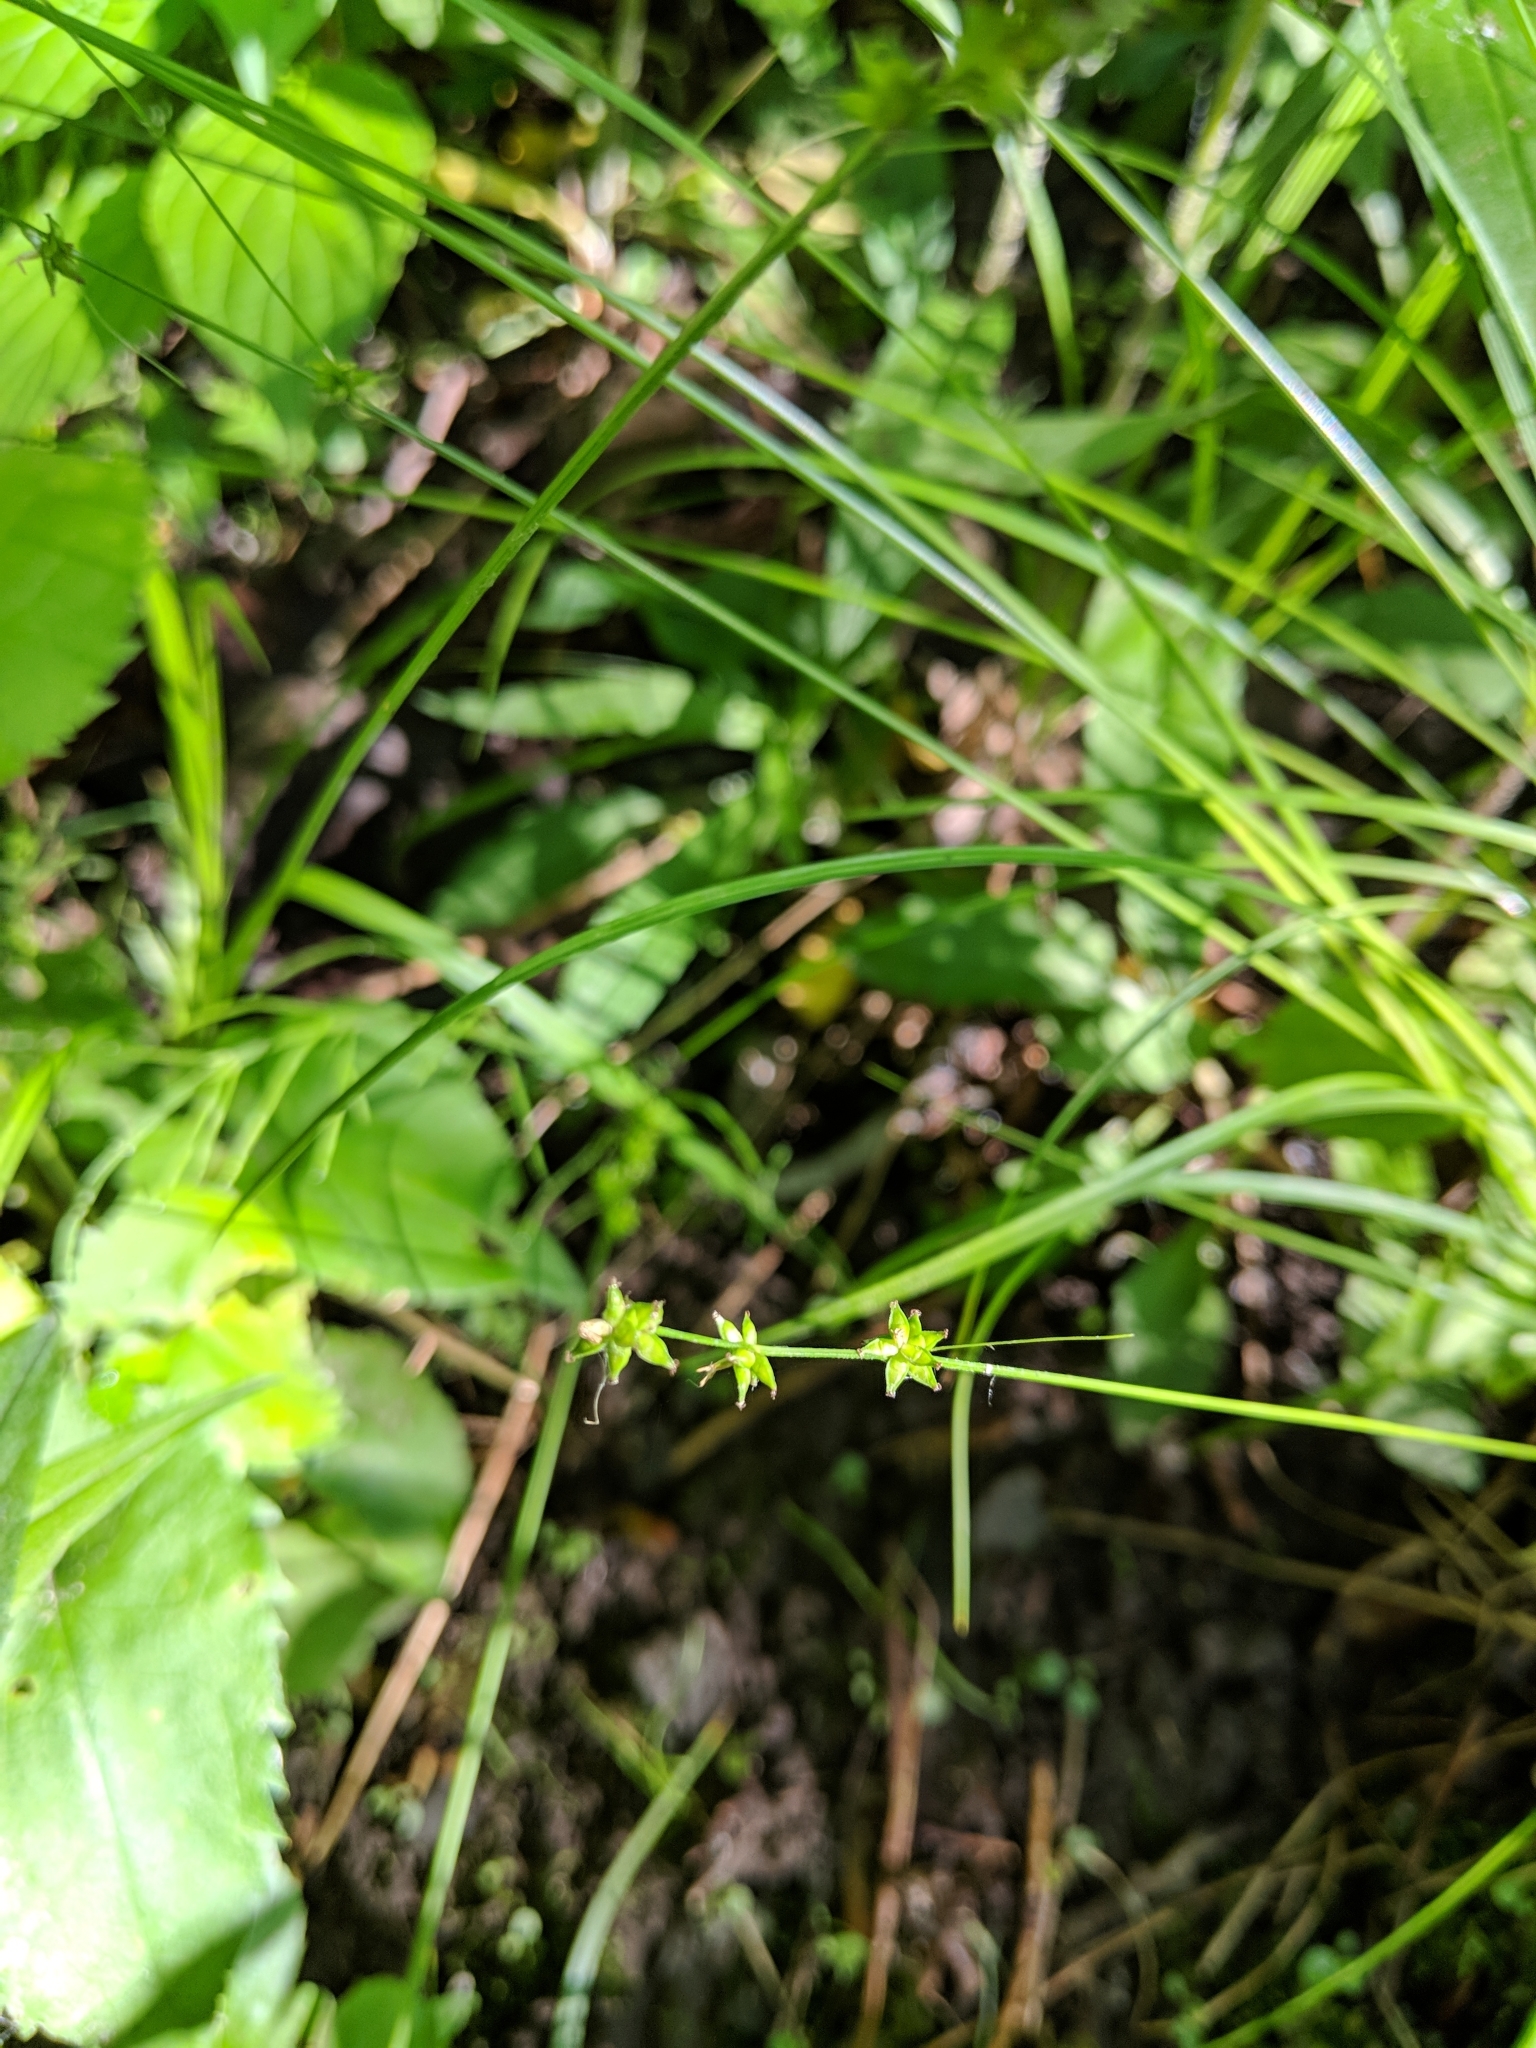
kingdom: Plantae
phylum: Tracheophyta
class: Liliopsida
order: Poales
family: Cyperaceae
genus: Carex
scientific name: Carex rosea
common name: Curly-styled wood sedge
